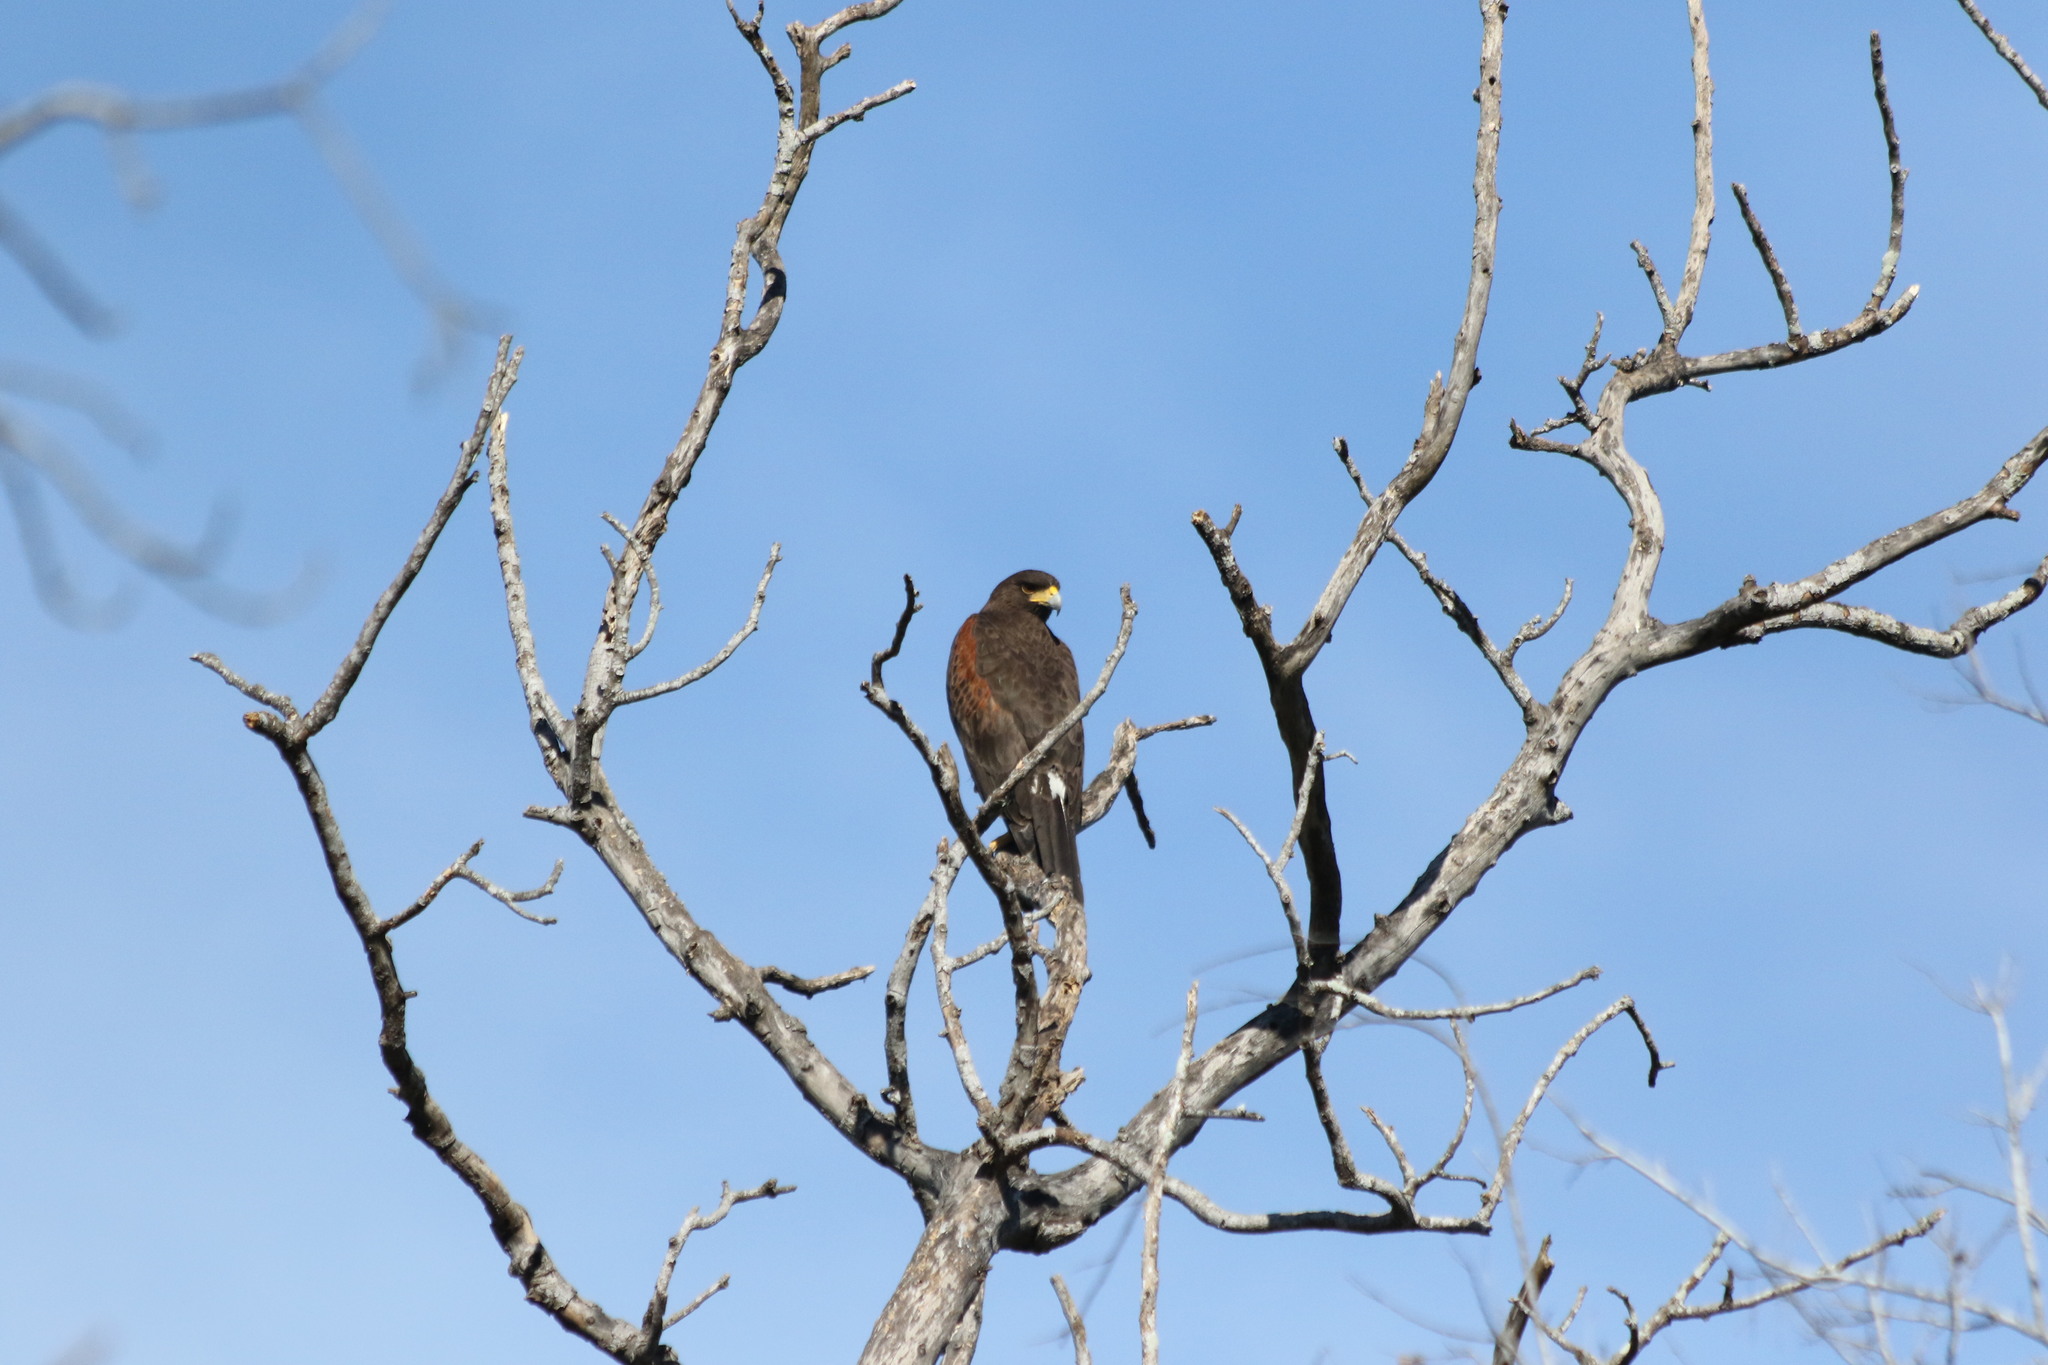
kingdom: Animalia
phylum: Chordata
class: Aves
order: Accipitriformes
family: Accipitridae
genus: Parabuteo
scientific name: Parabuteo unicinctus
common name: Harris's hawk
